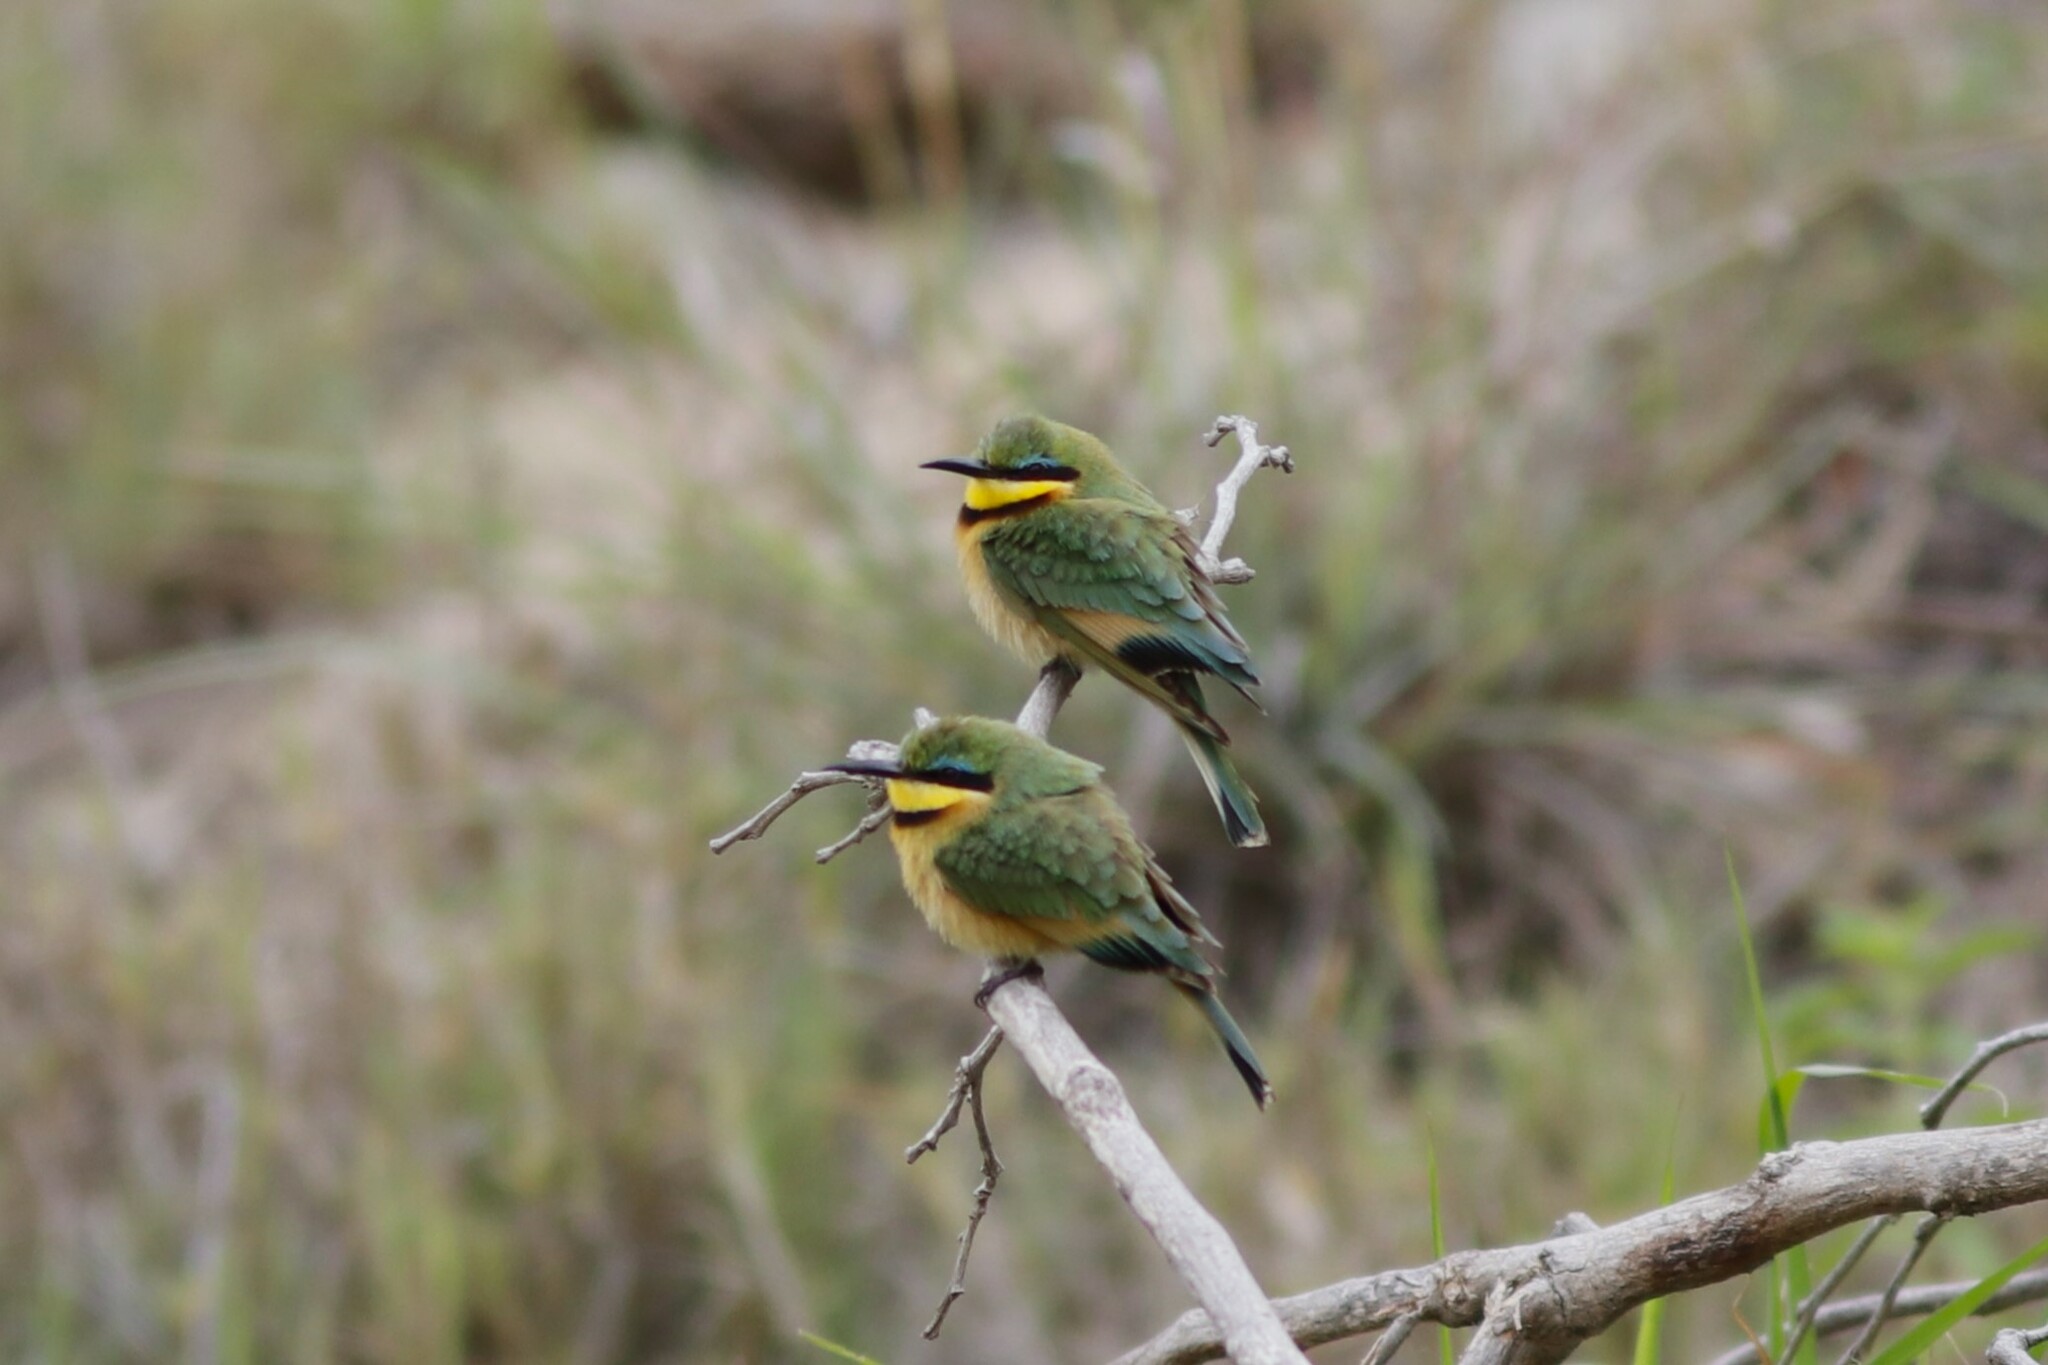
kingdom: Animalia
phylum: Chordata
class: Aves
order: Coraciiformes
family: Meropidae
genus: Merops
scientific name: Merops pusillus
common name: Little bee-eater
